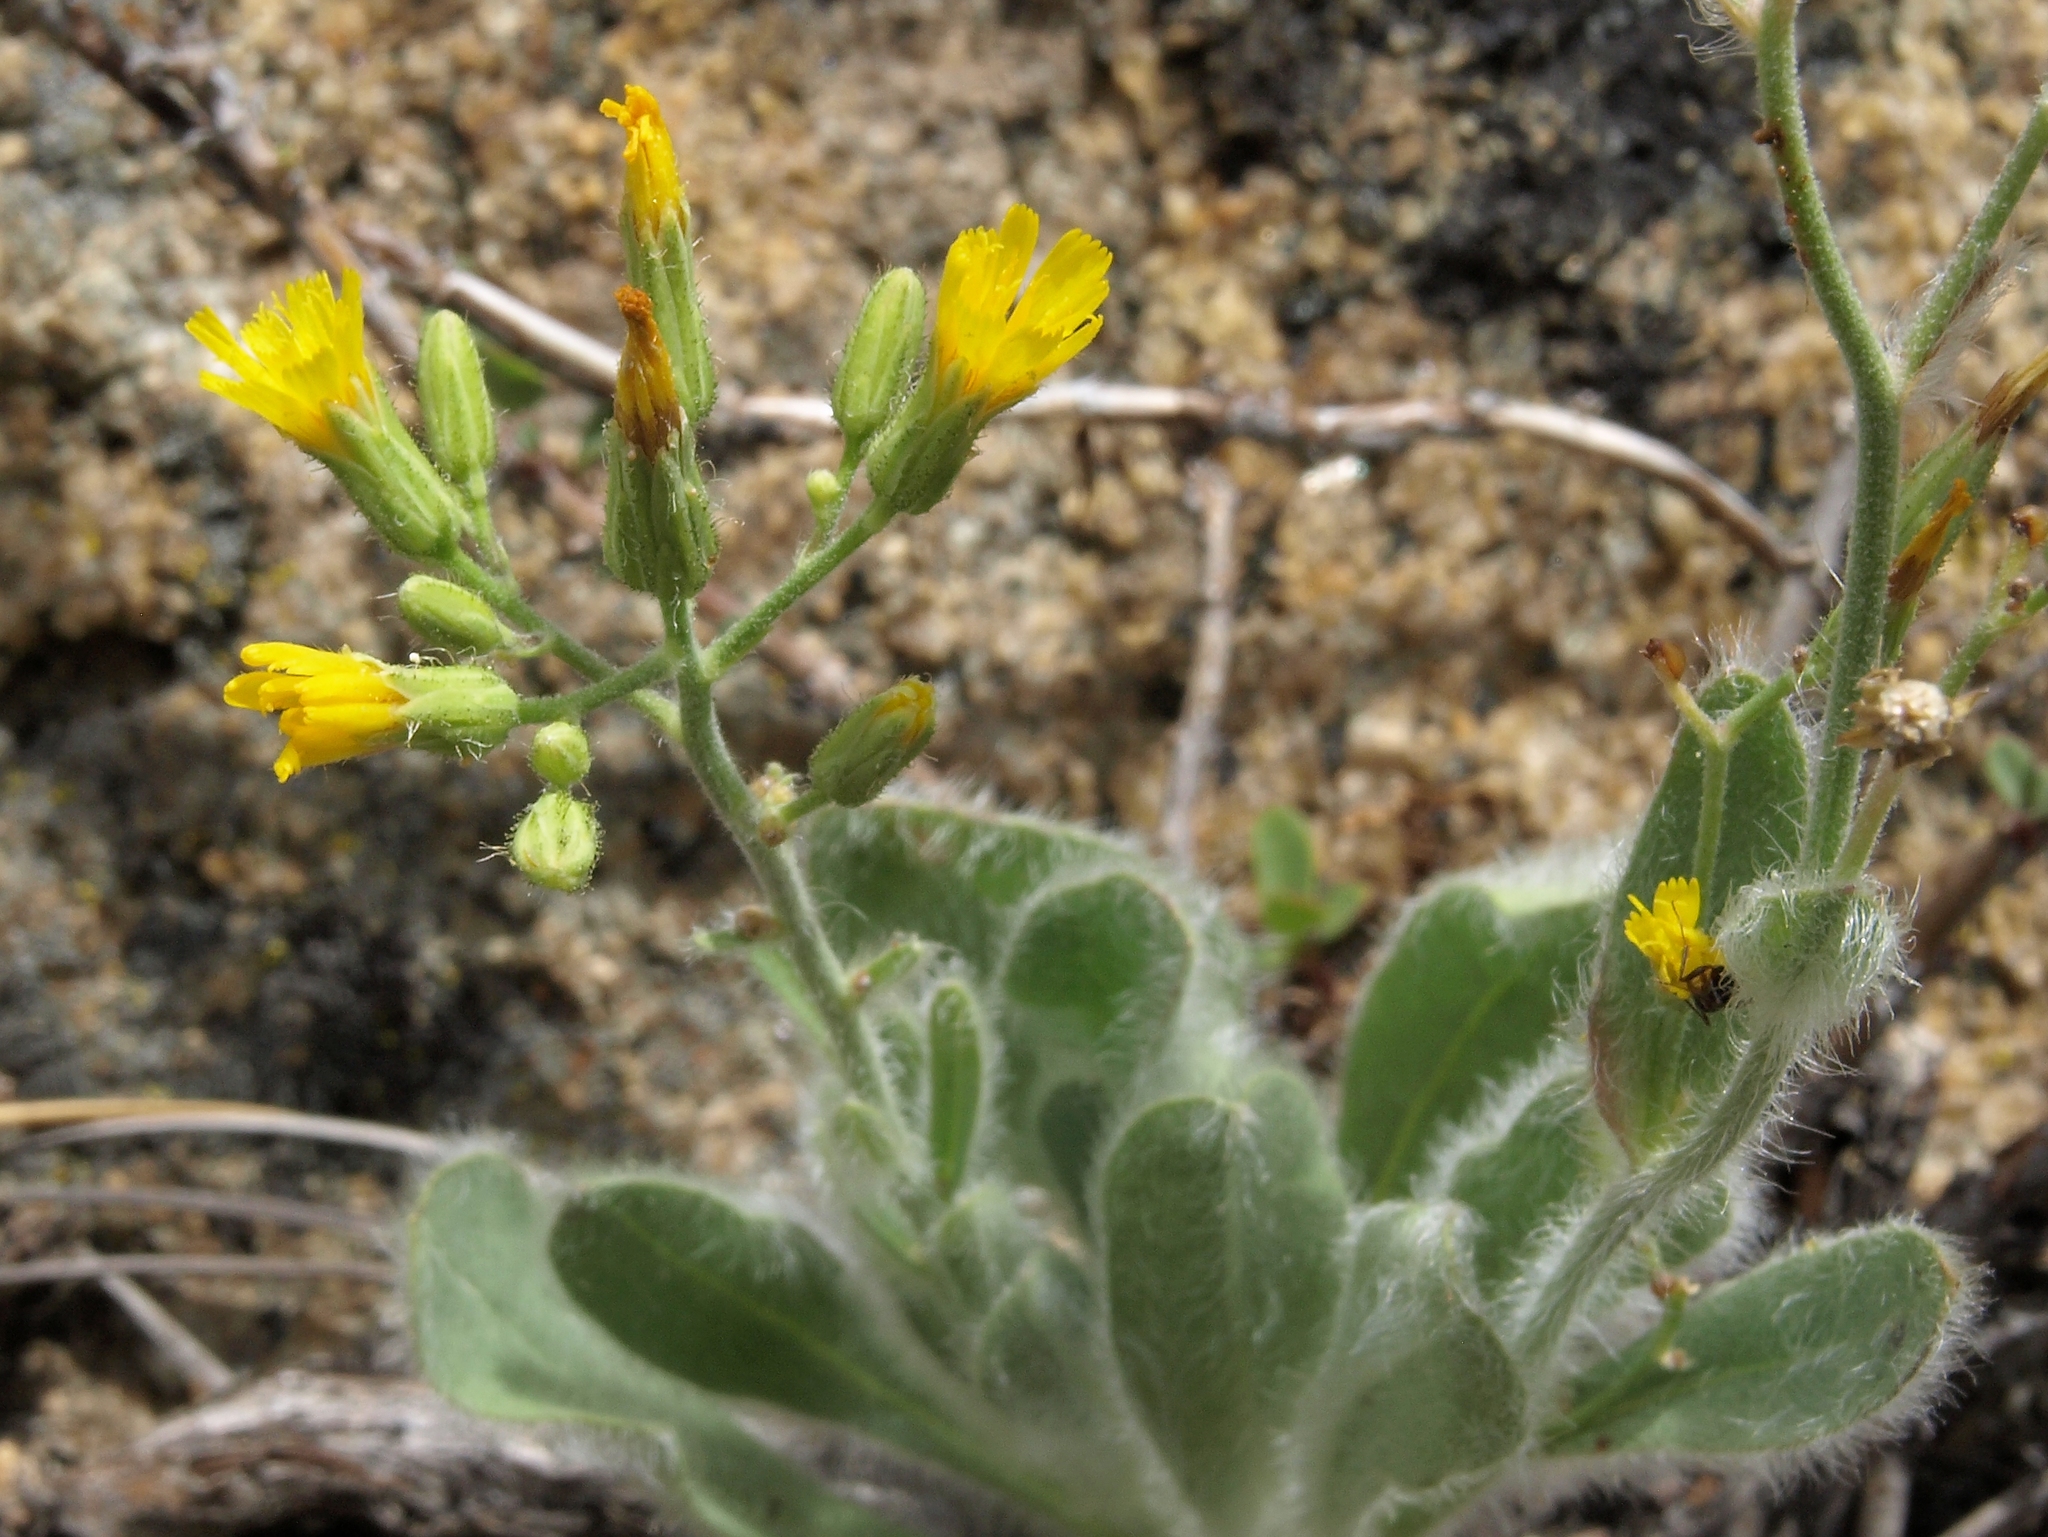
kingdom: Plantae
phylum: Tracheophyta
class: Magnoliopsida
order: Asterales
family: Asteraceae
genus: Hieracium
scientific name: Hieracium horridum
